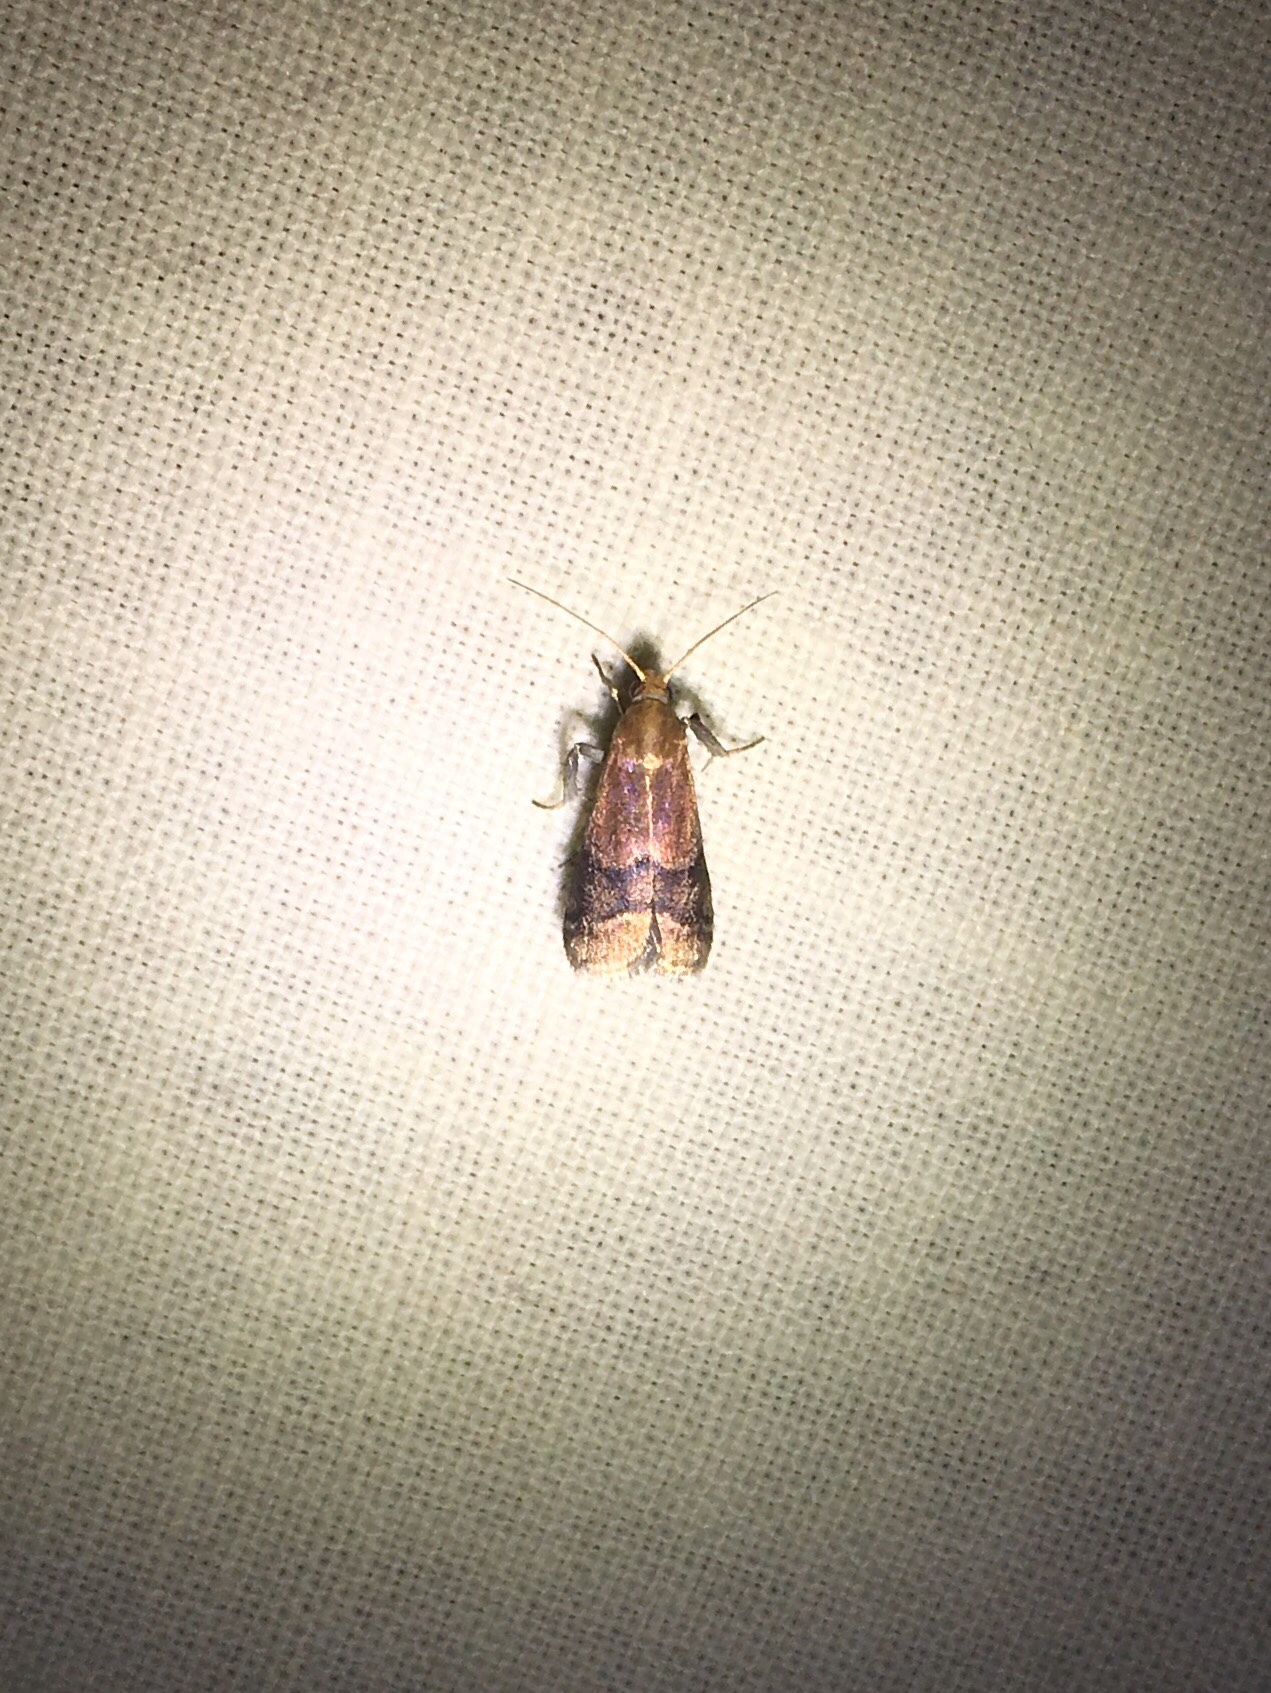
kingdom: Animalia
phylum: Arthropoda
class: Insecta
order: Lepidoptera
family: Pyralidae
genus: Eulogia
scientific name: Eulogia ochrifrontella
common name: Broad-banded eulogia moth
